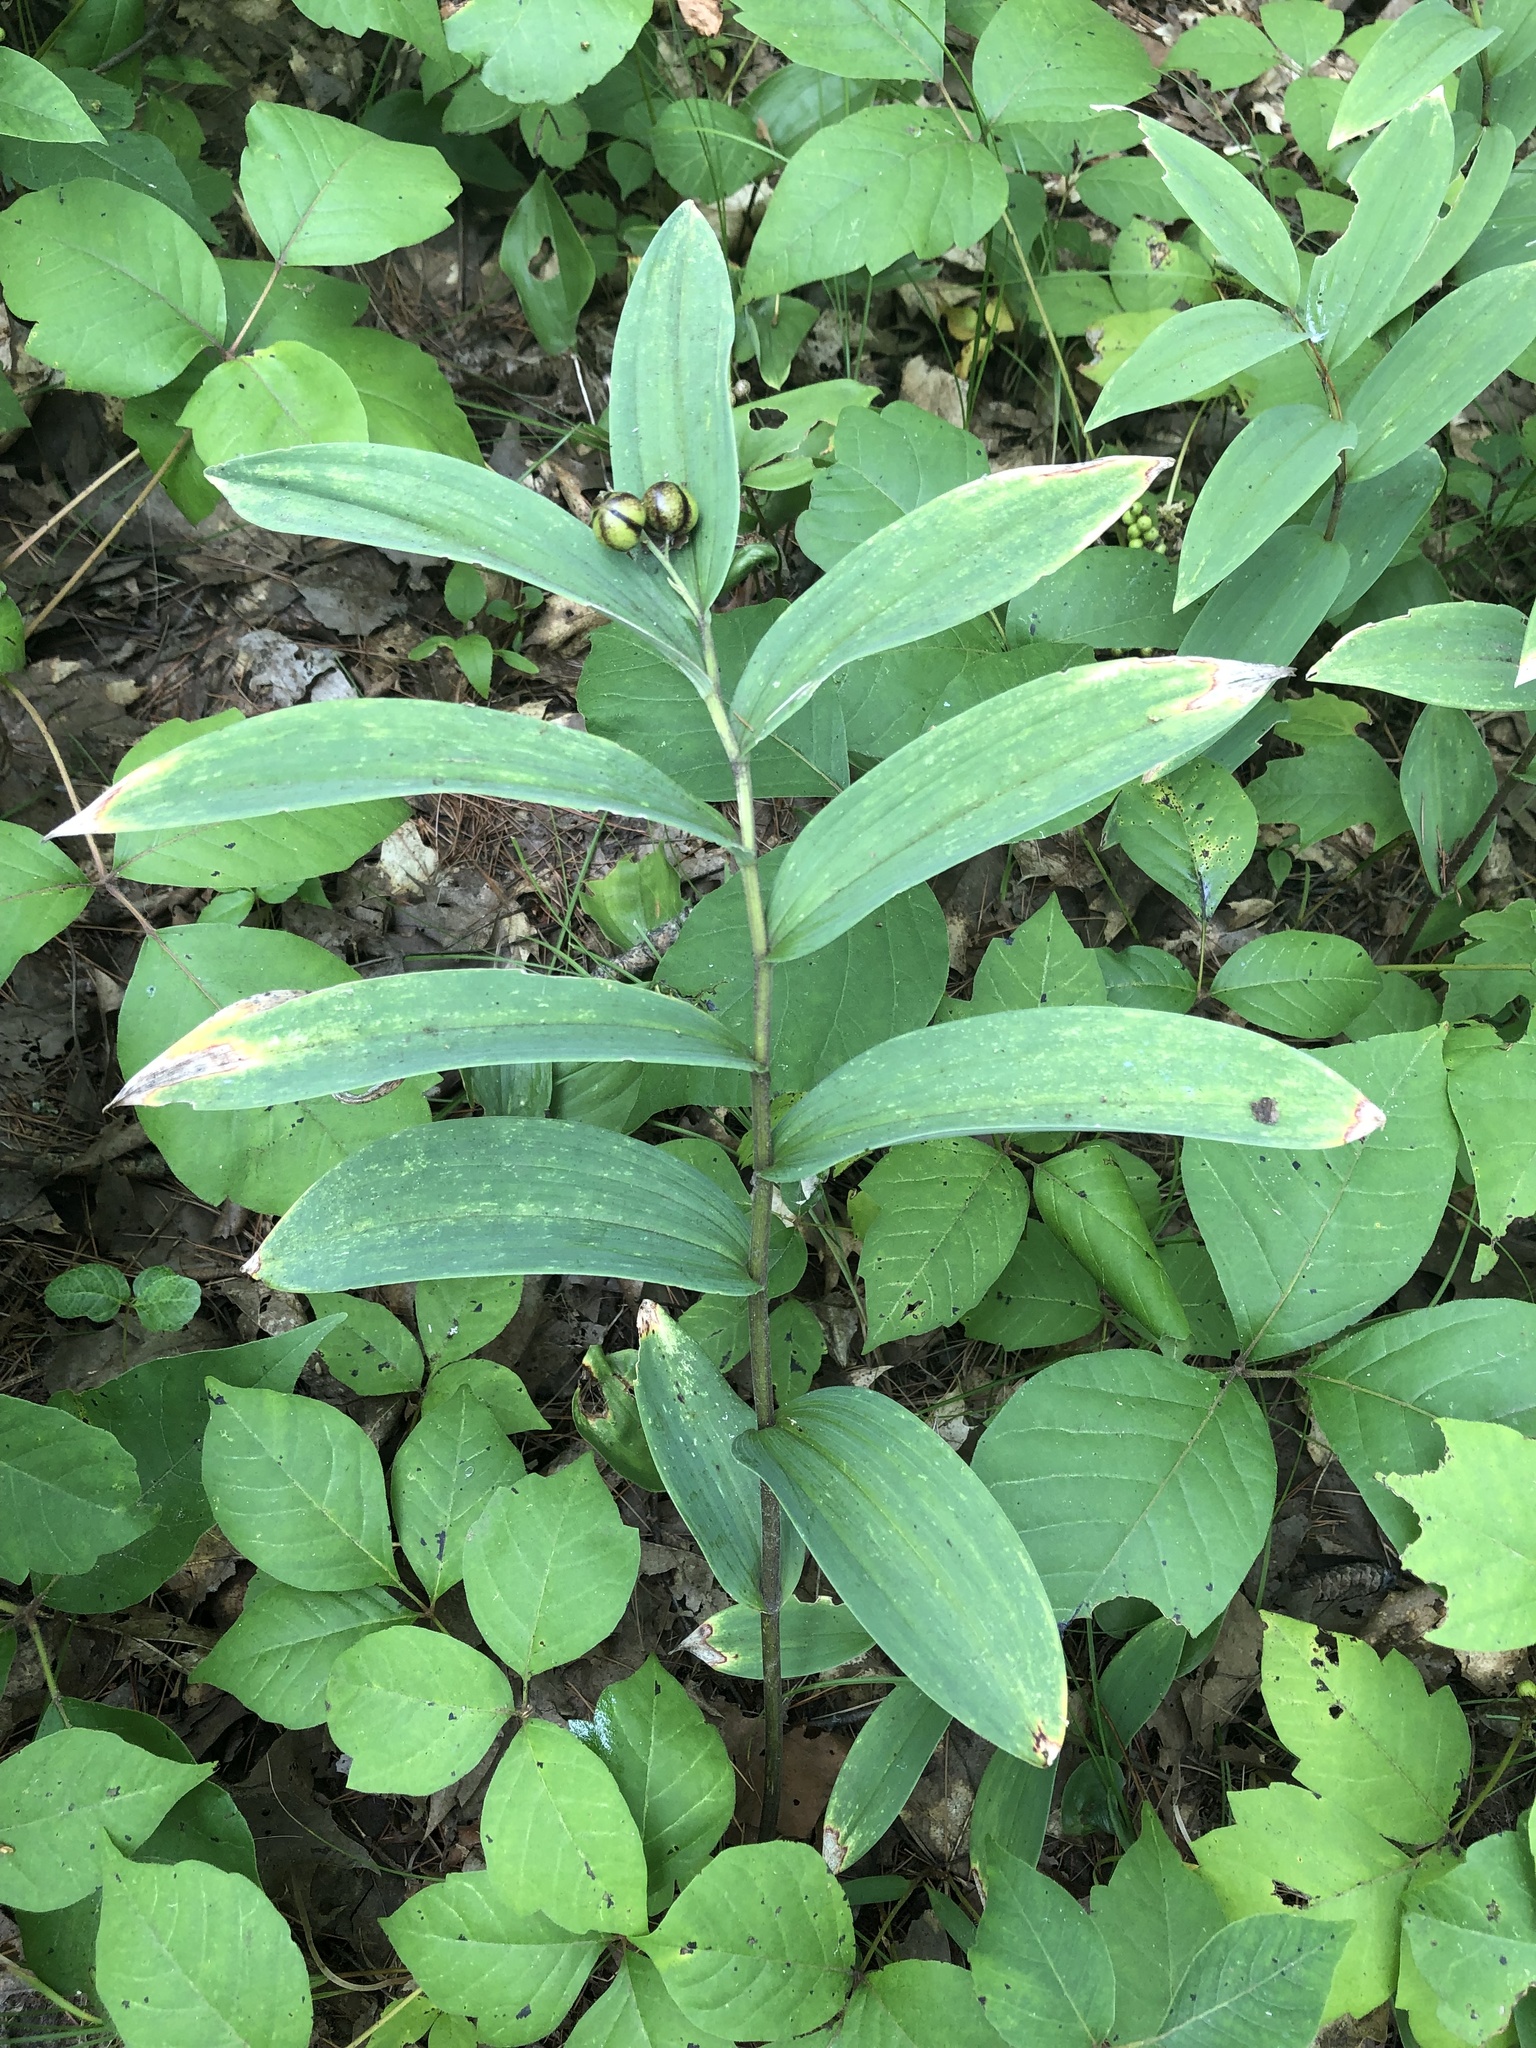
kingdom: Plantae
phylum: Tracheophyta
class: Liliopsida
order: Asparagales
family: Asparagaceae
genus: Maianthemum
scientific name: Maianthemum stellatum
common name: Little false solomon's seal
